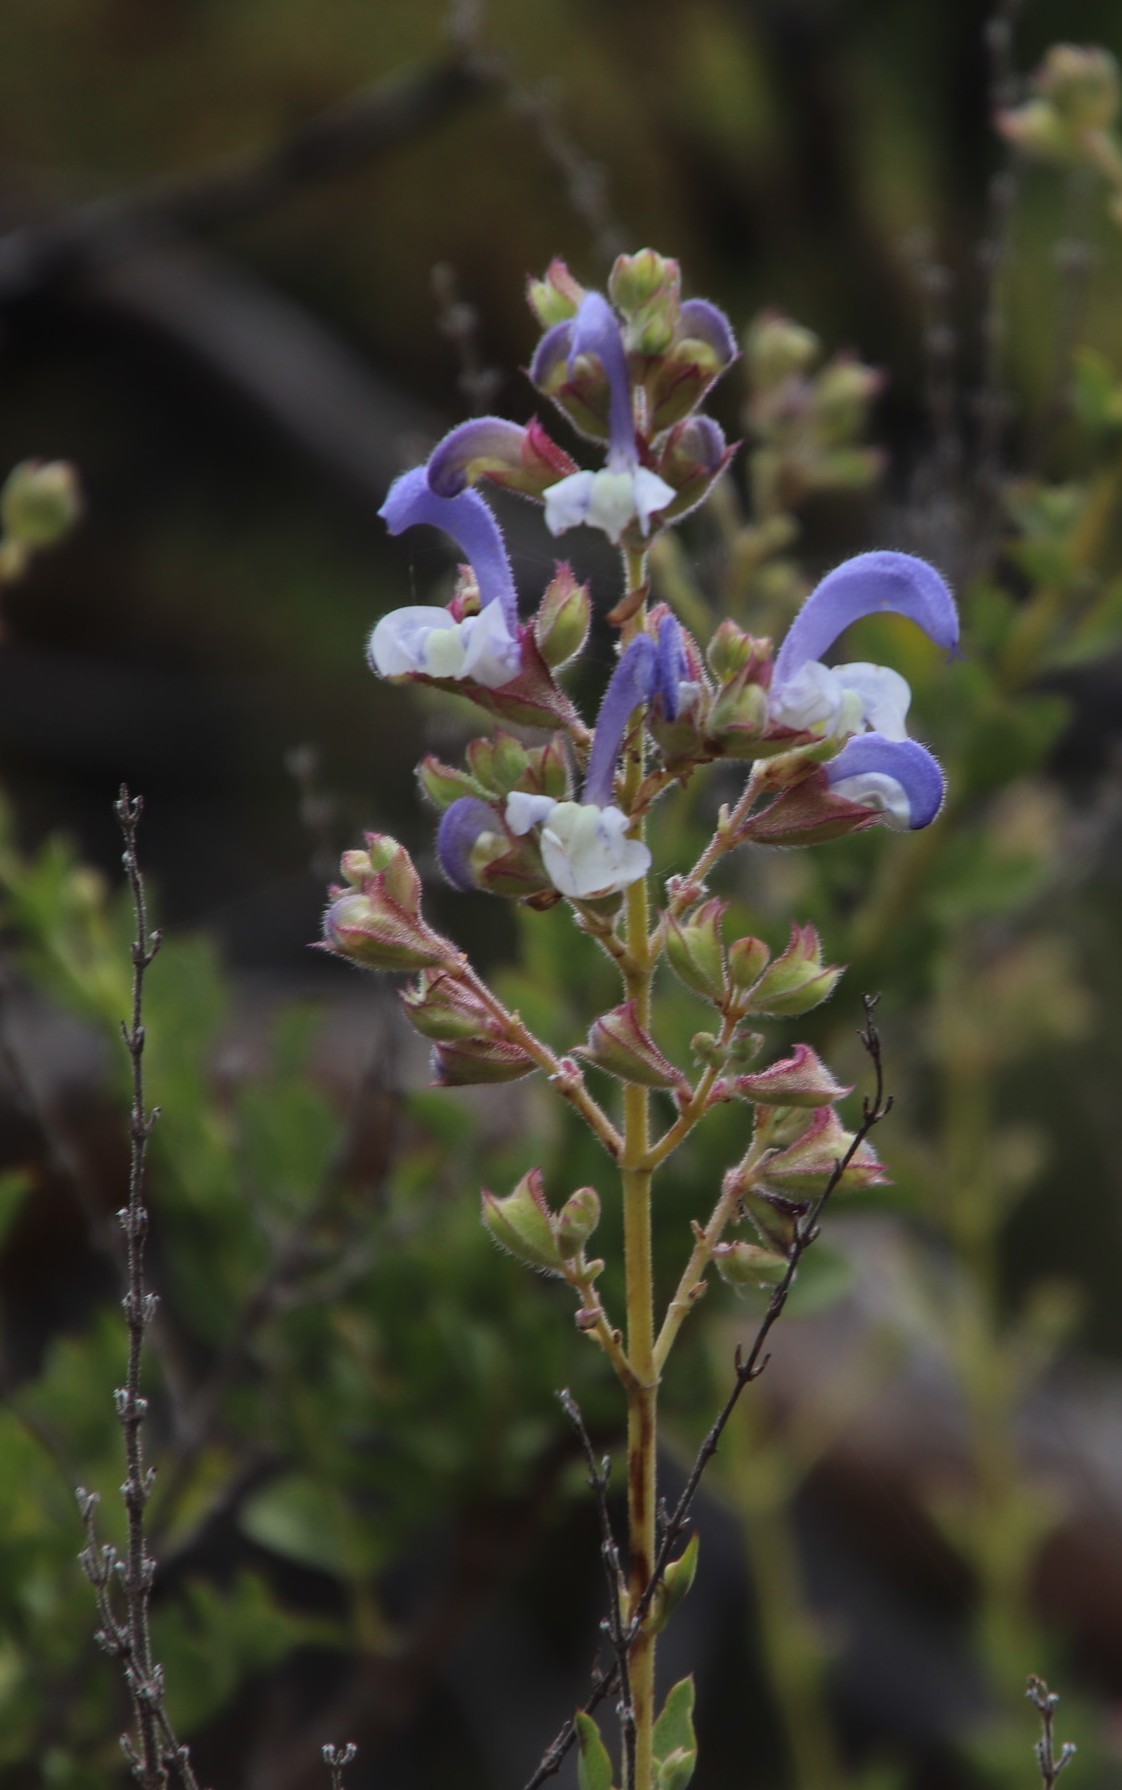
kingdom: Plantae
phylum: Tracheophyta
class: Magnoliopsida
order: Lamiales
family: Lamiaceae
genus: Salvia
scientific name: Salvia chamelaeagnea
